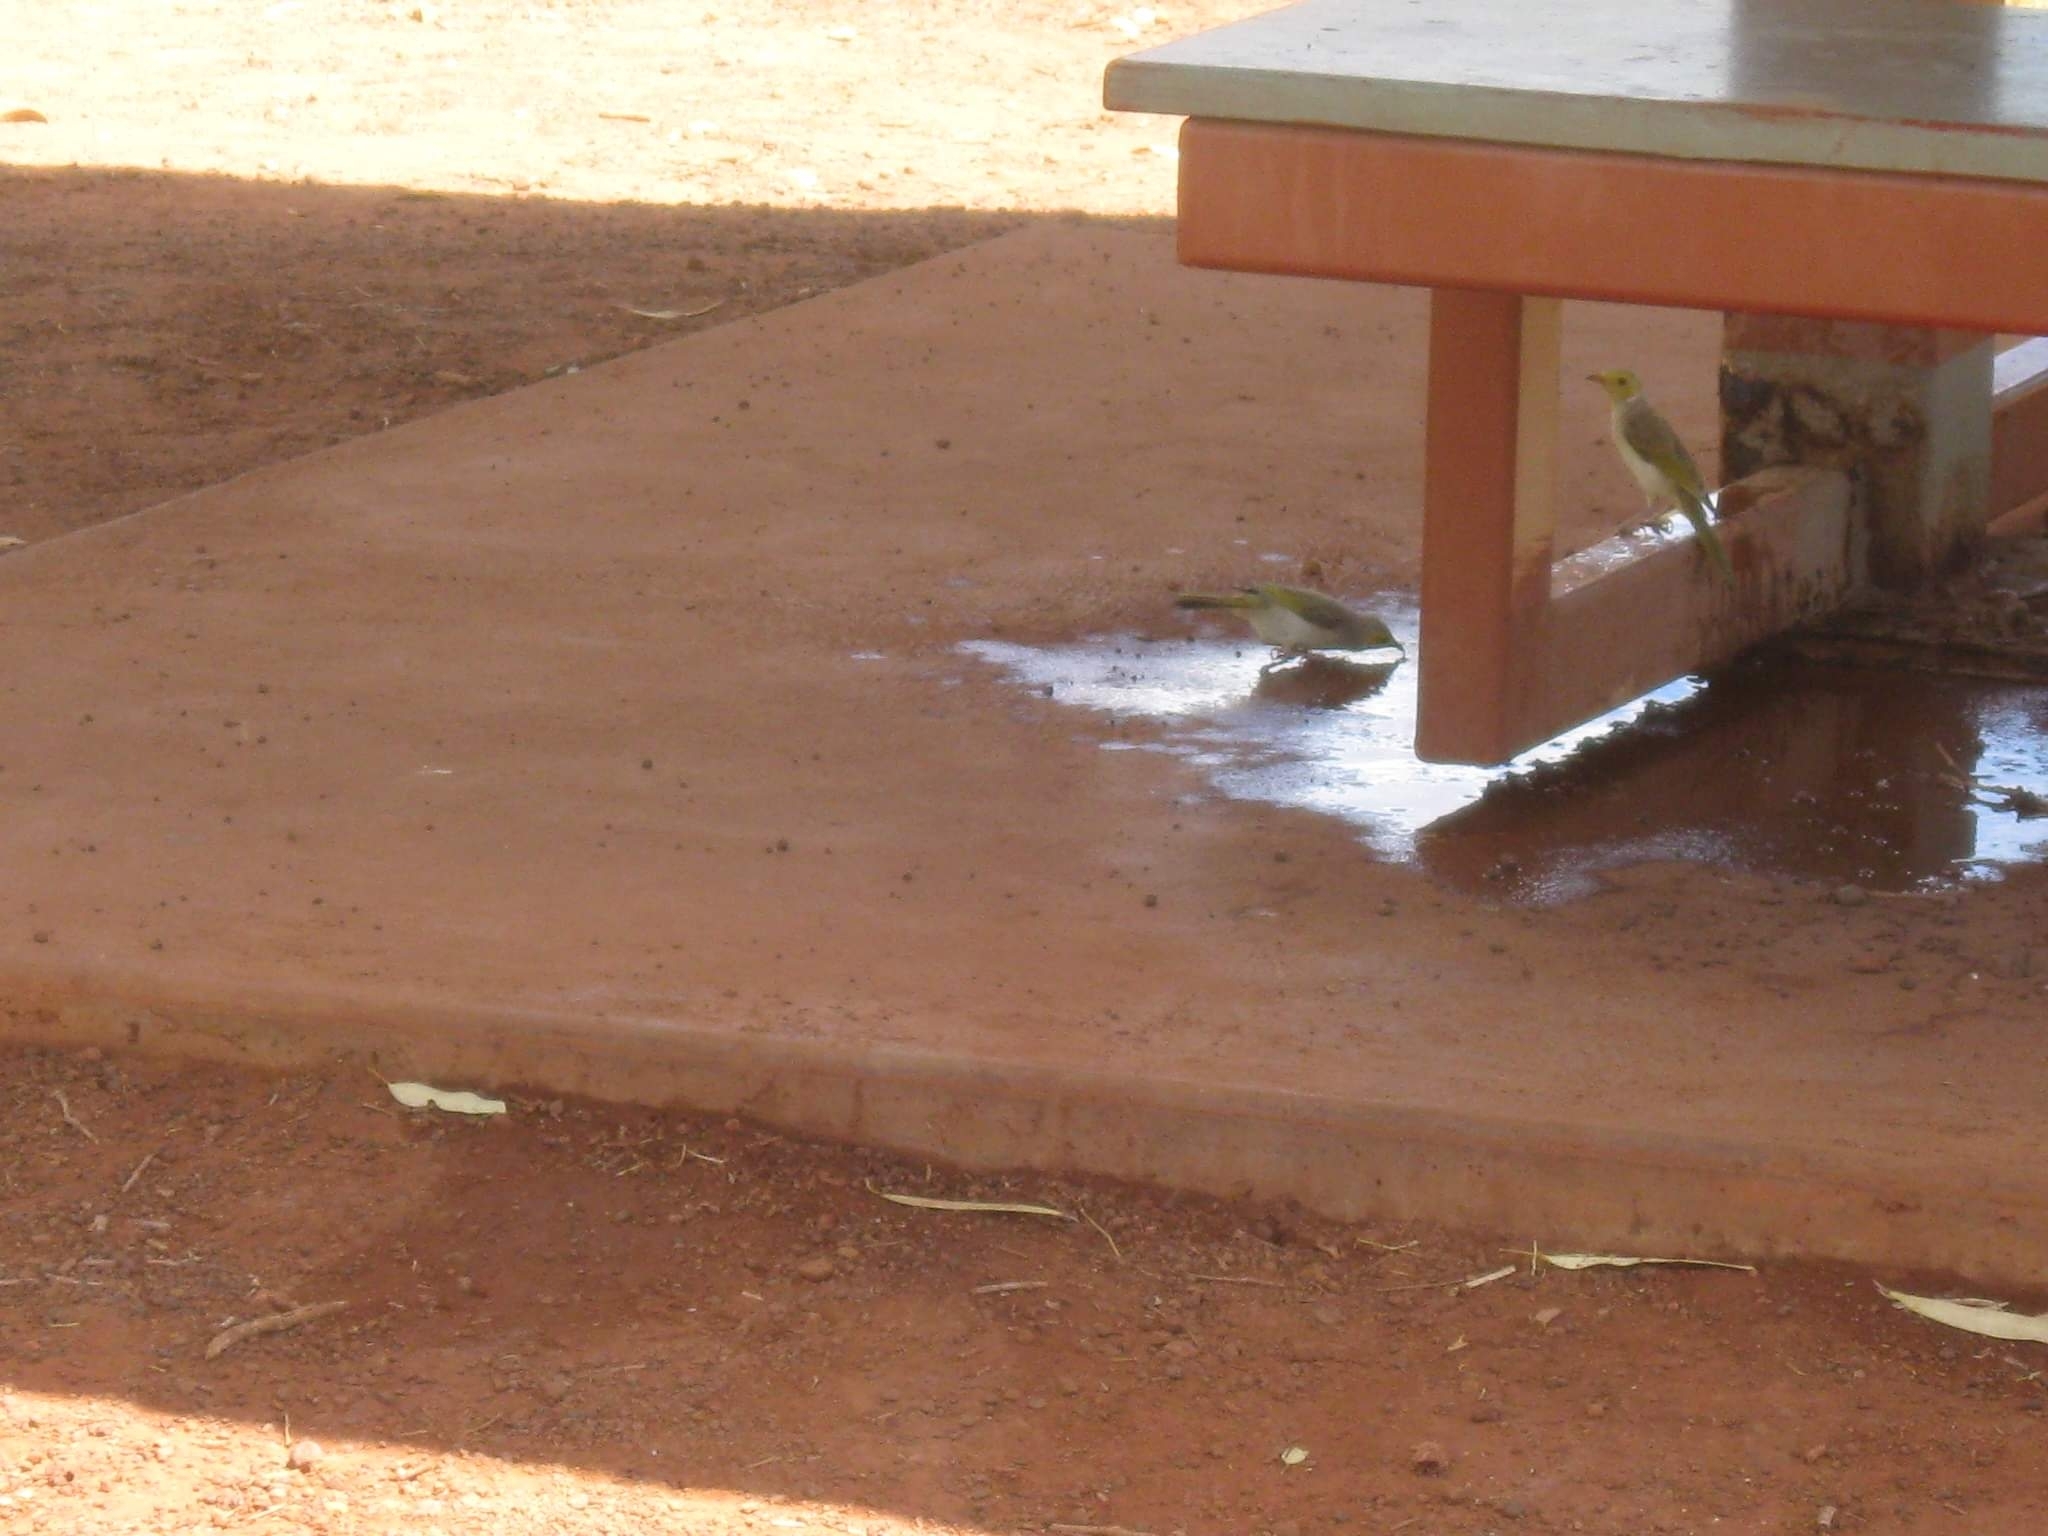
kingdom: Animalia
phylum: Chordata
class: Aves
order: Passeriformes
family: Meliphagidae
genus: Ptilotula
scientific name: Ptilotula penicillata
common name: White-plumed honeyeater
